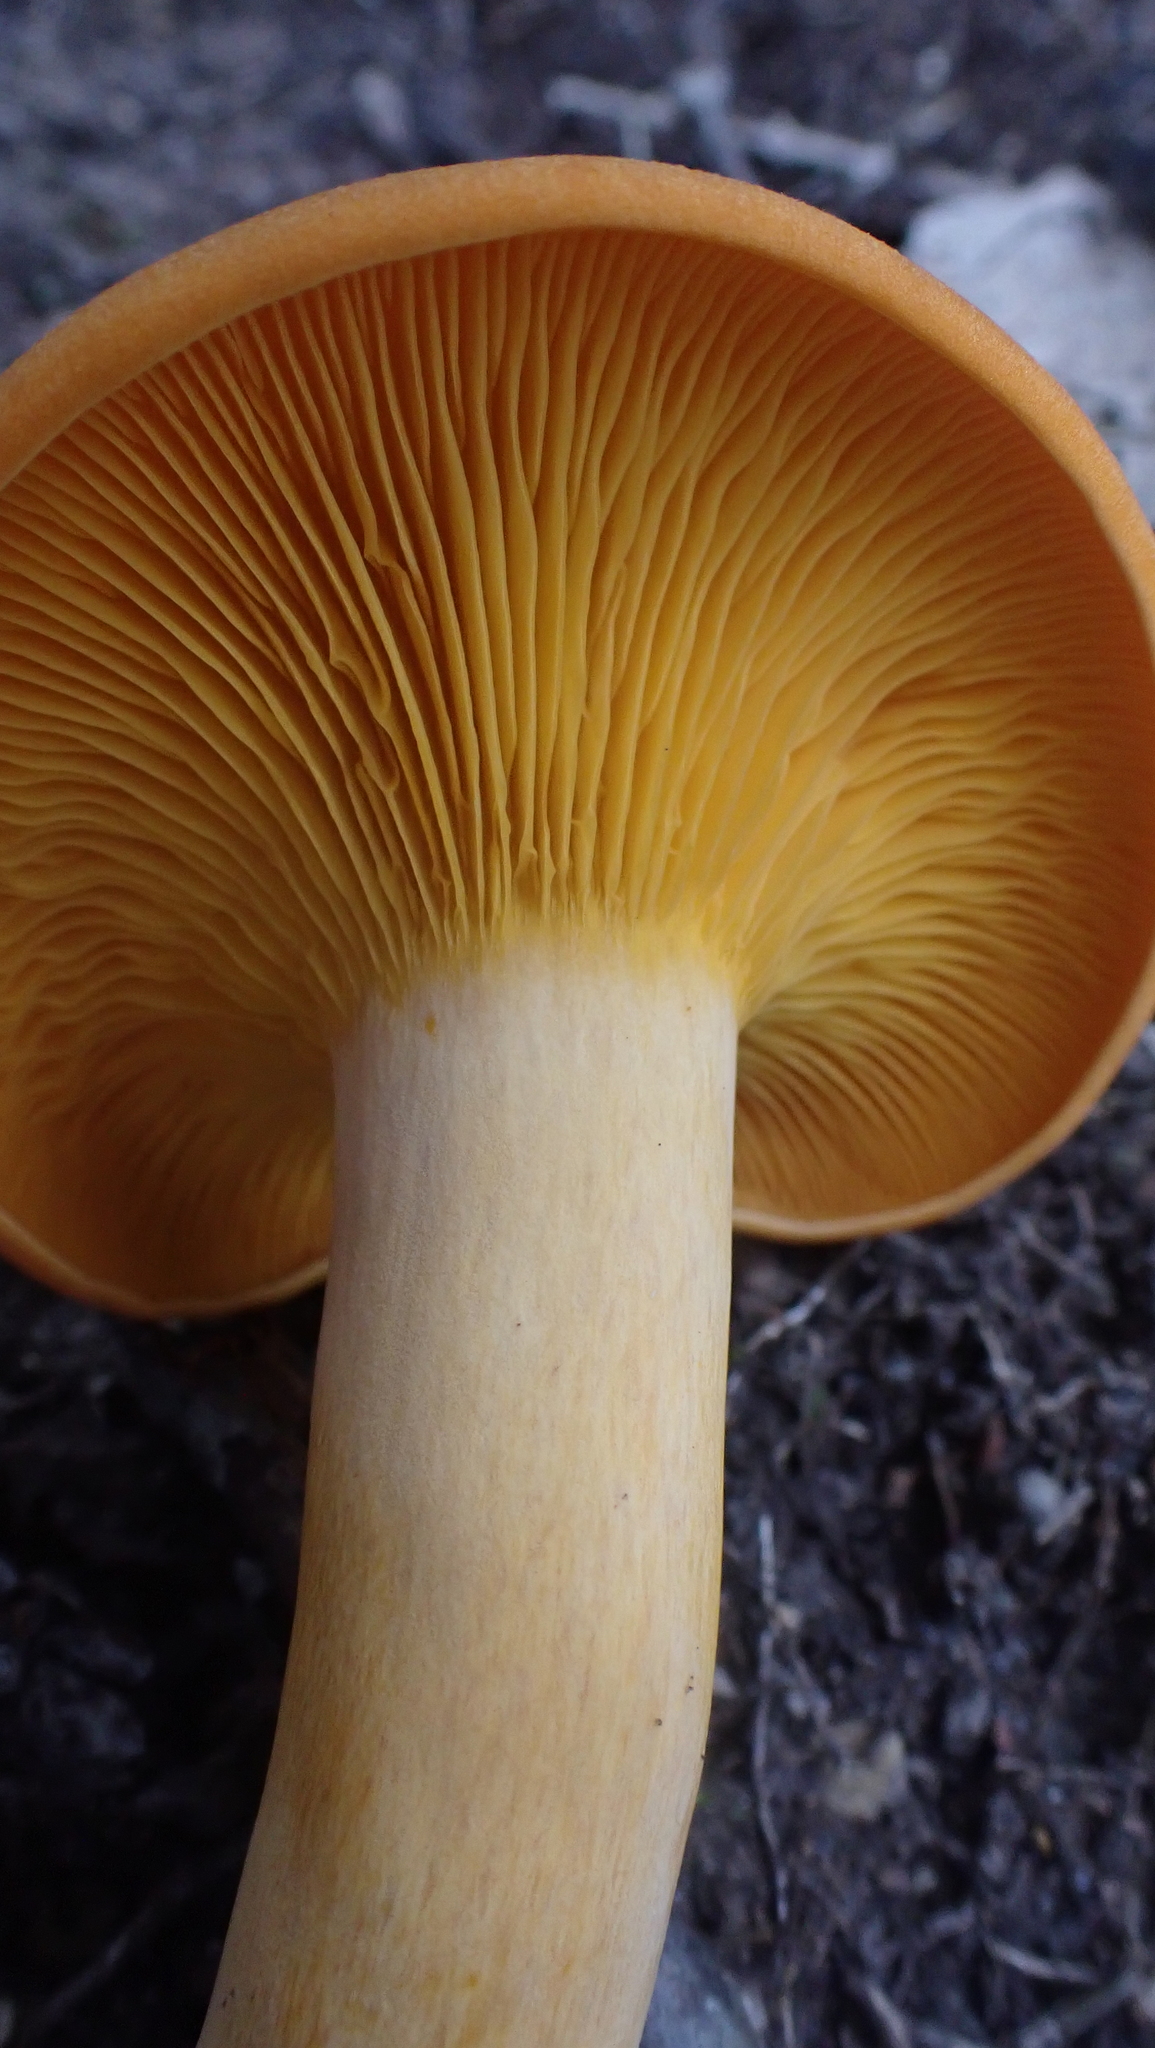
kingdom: Fungi
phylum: Basidiomycota
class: Agaricomycetes
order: Agaricales
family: Omphalotaceae
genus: Omphalotus
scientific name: Omphalotus illudens
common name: Jack o lantern
